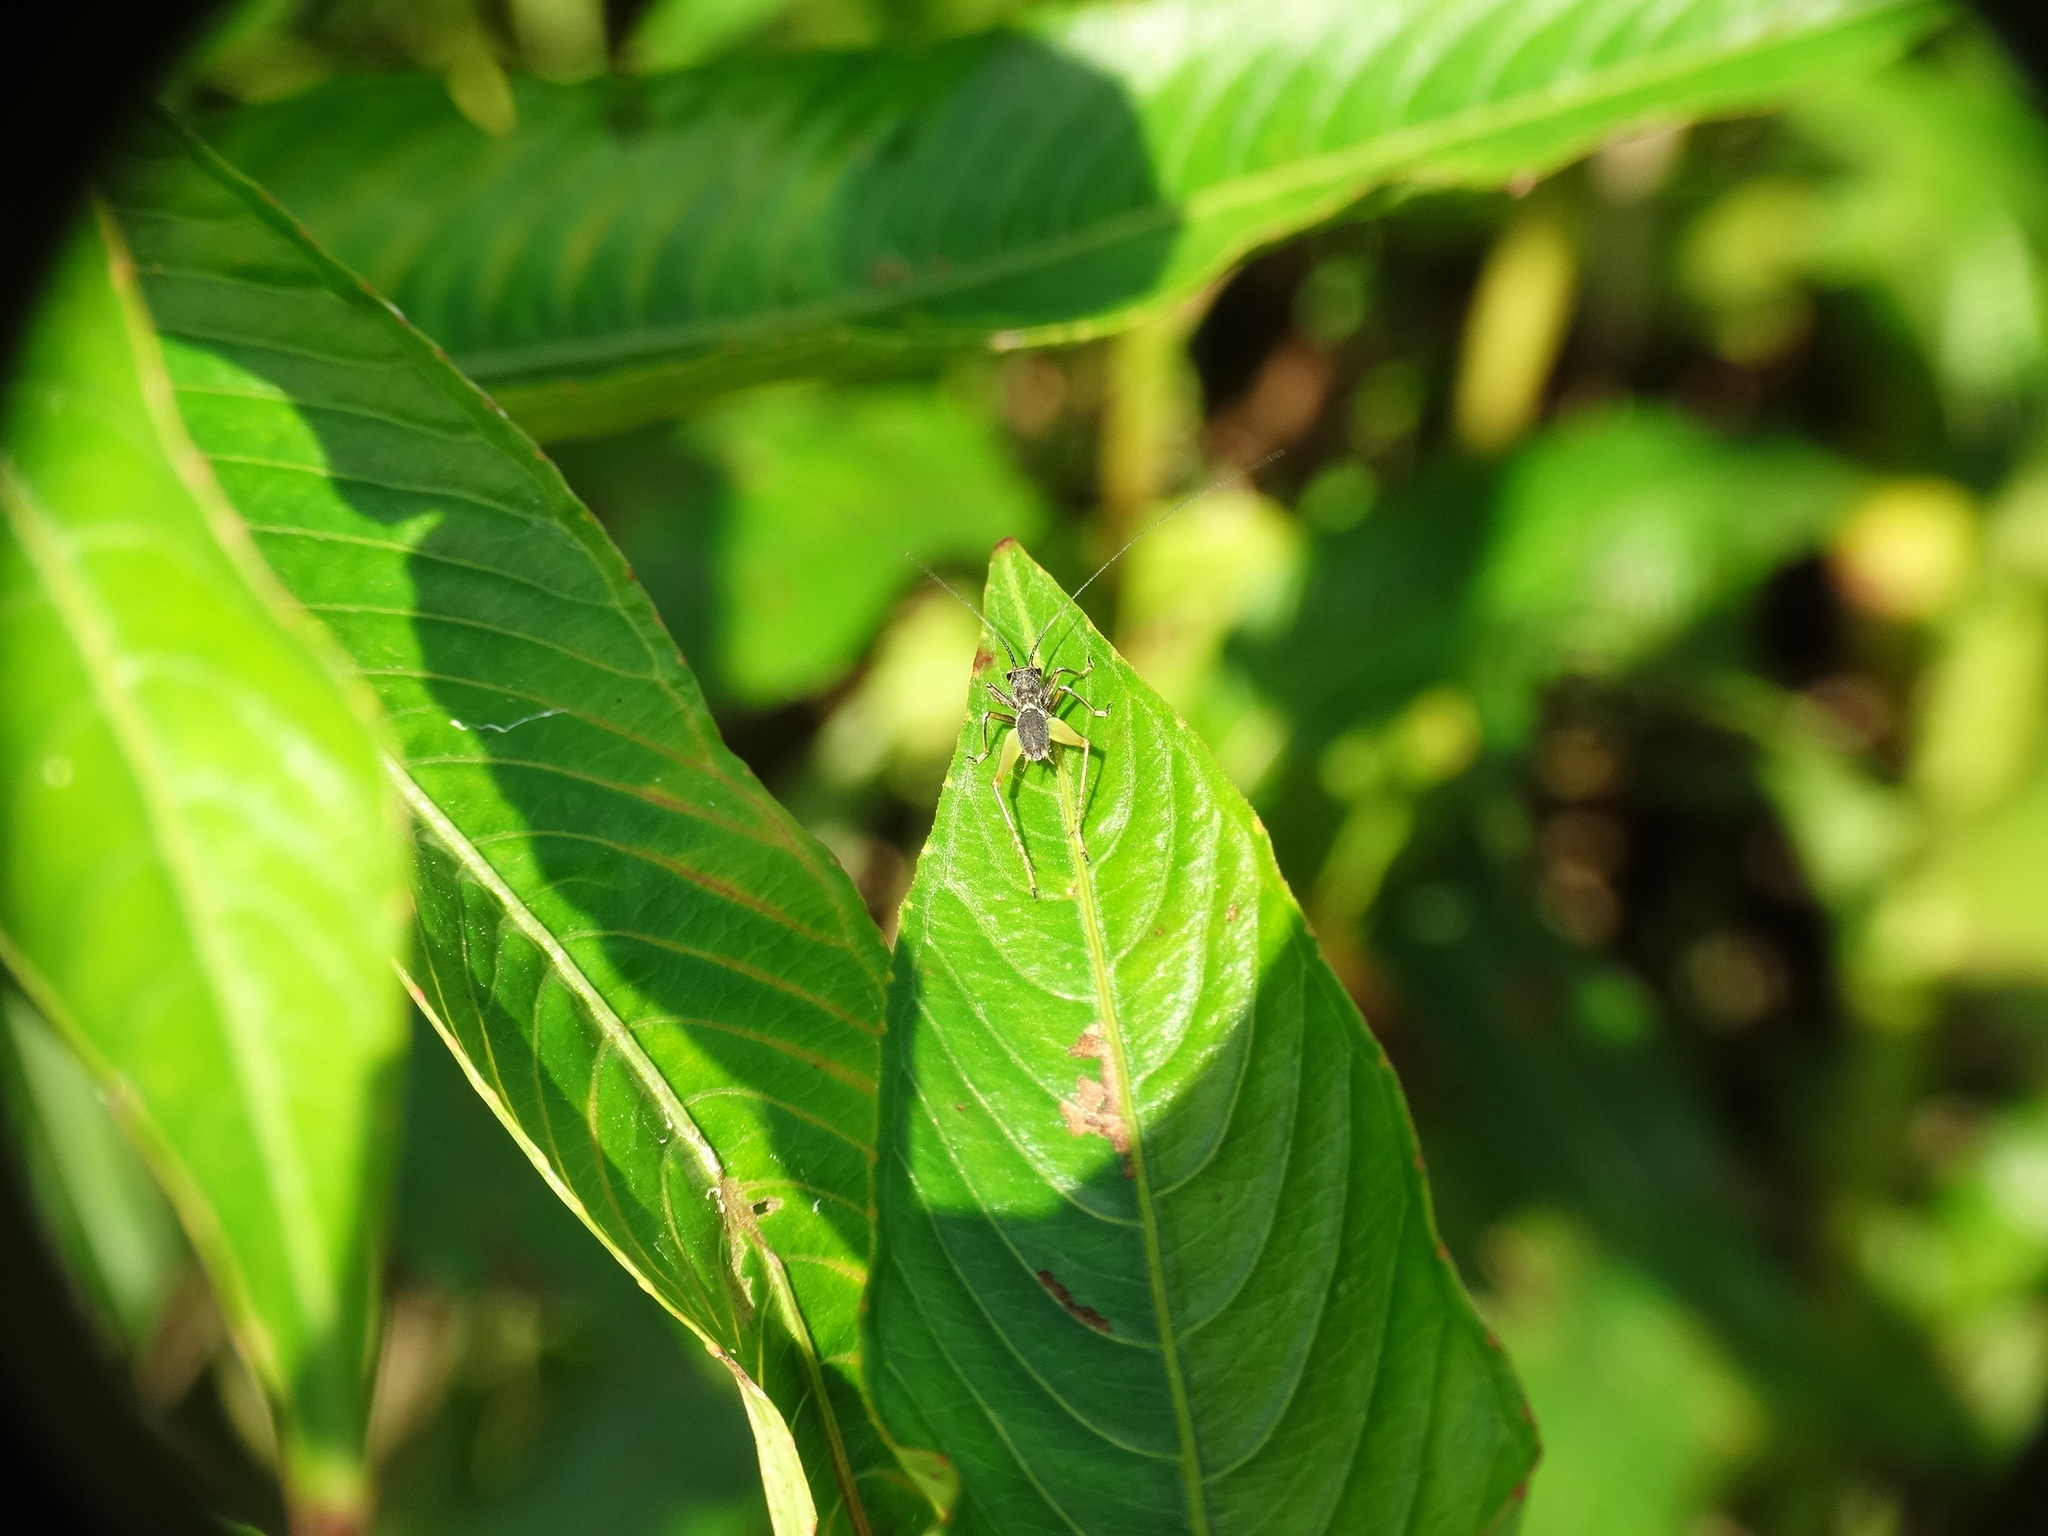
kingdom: Animalia
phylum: Arthropoda
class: Insecta
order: Orthoptera
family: Trigonidiidae
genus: Phylloscyrtus
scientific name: Phylloscyrtus amoenus
